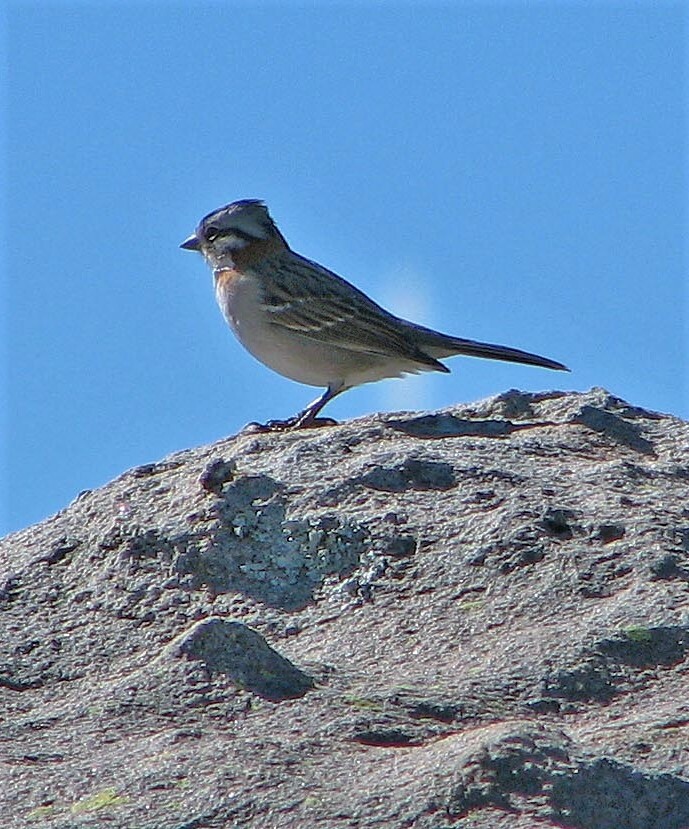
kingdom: Animalia
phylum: Chordata
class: Aves
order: Passeriformes
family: Passerellidae
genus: Zonotrichia
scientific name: Zonotrichia capensis
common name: Rufous-collared sparrow
